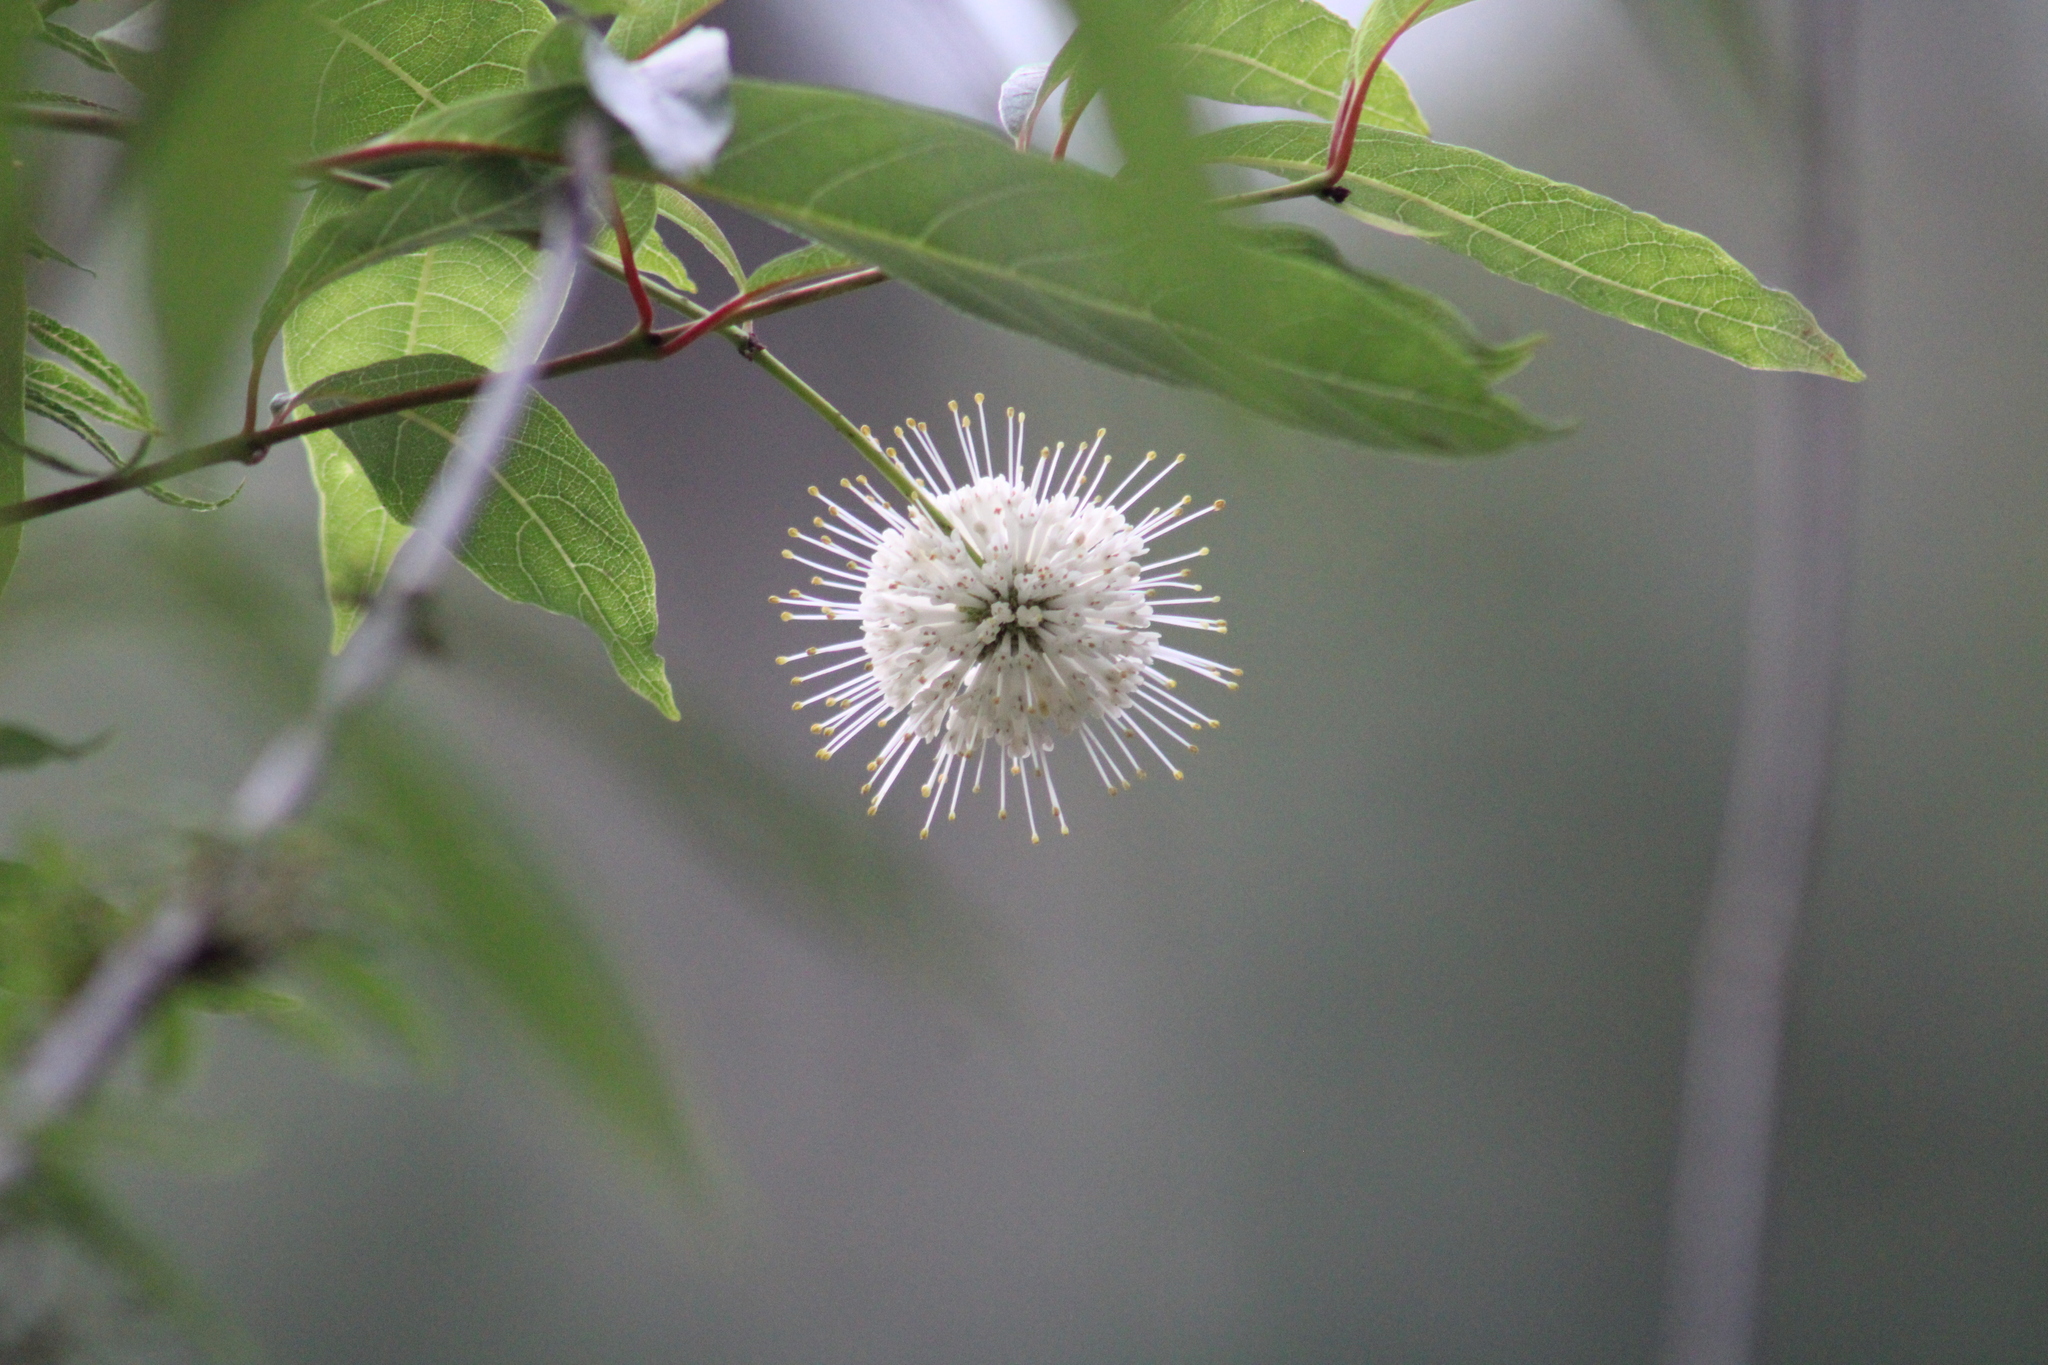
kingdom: Plantae
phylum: Tracheophyta
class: Magnoliopsida
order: Gentianales
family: Rubiaceae
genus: Cephalanthus
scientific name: Cephalanthus occidentalis
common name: Button-willow
